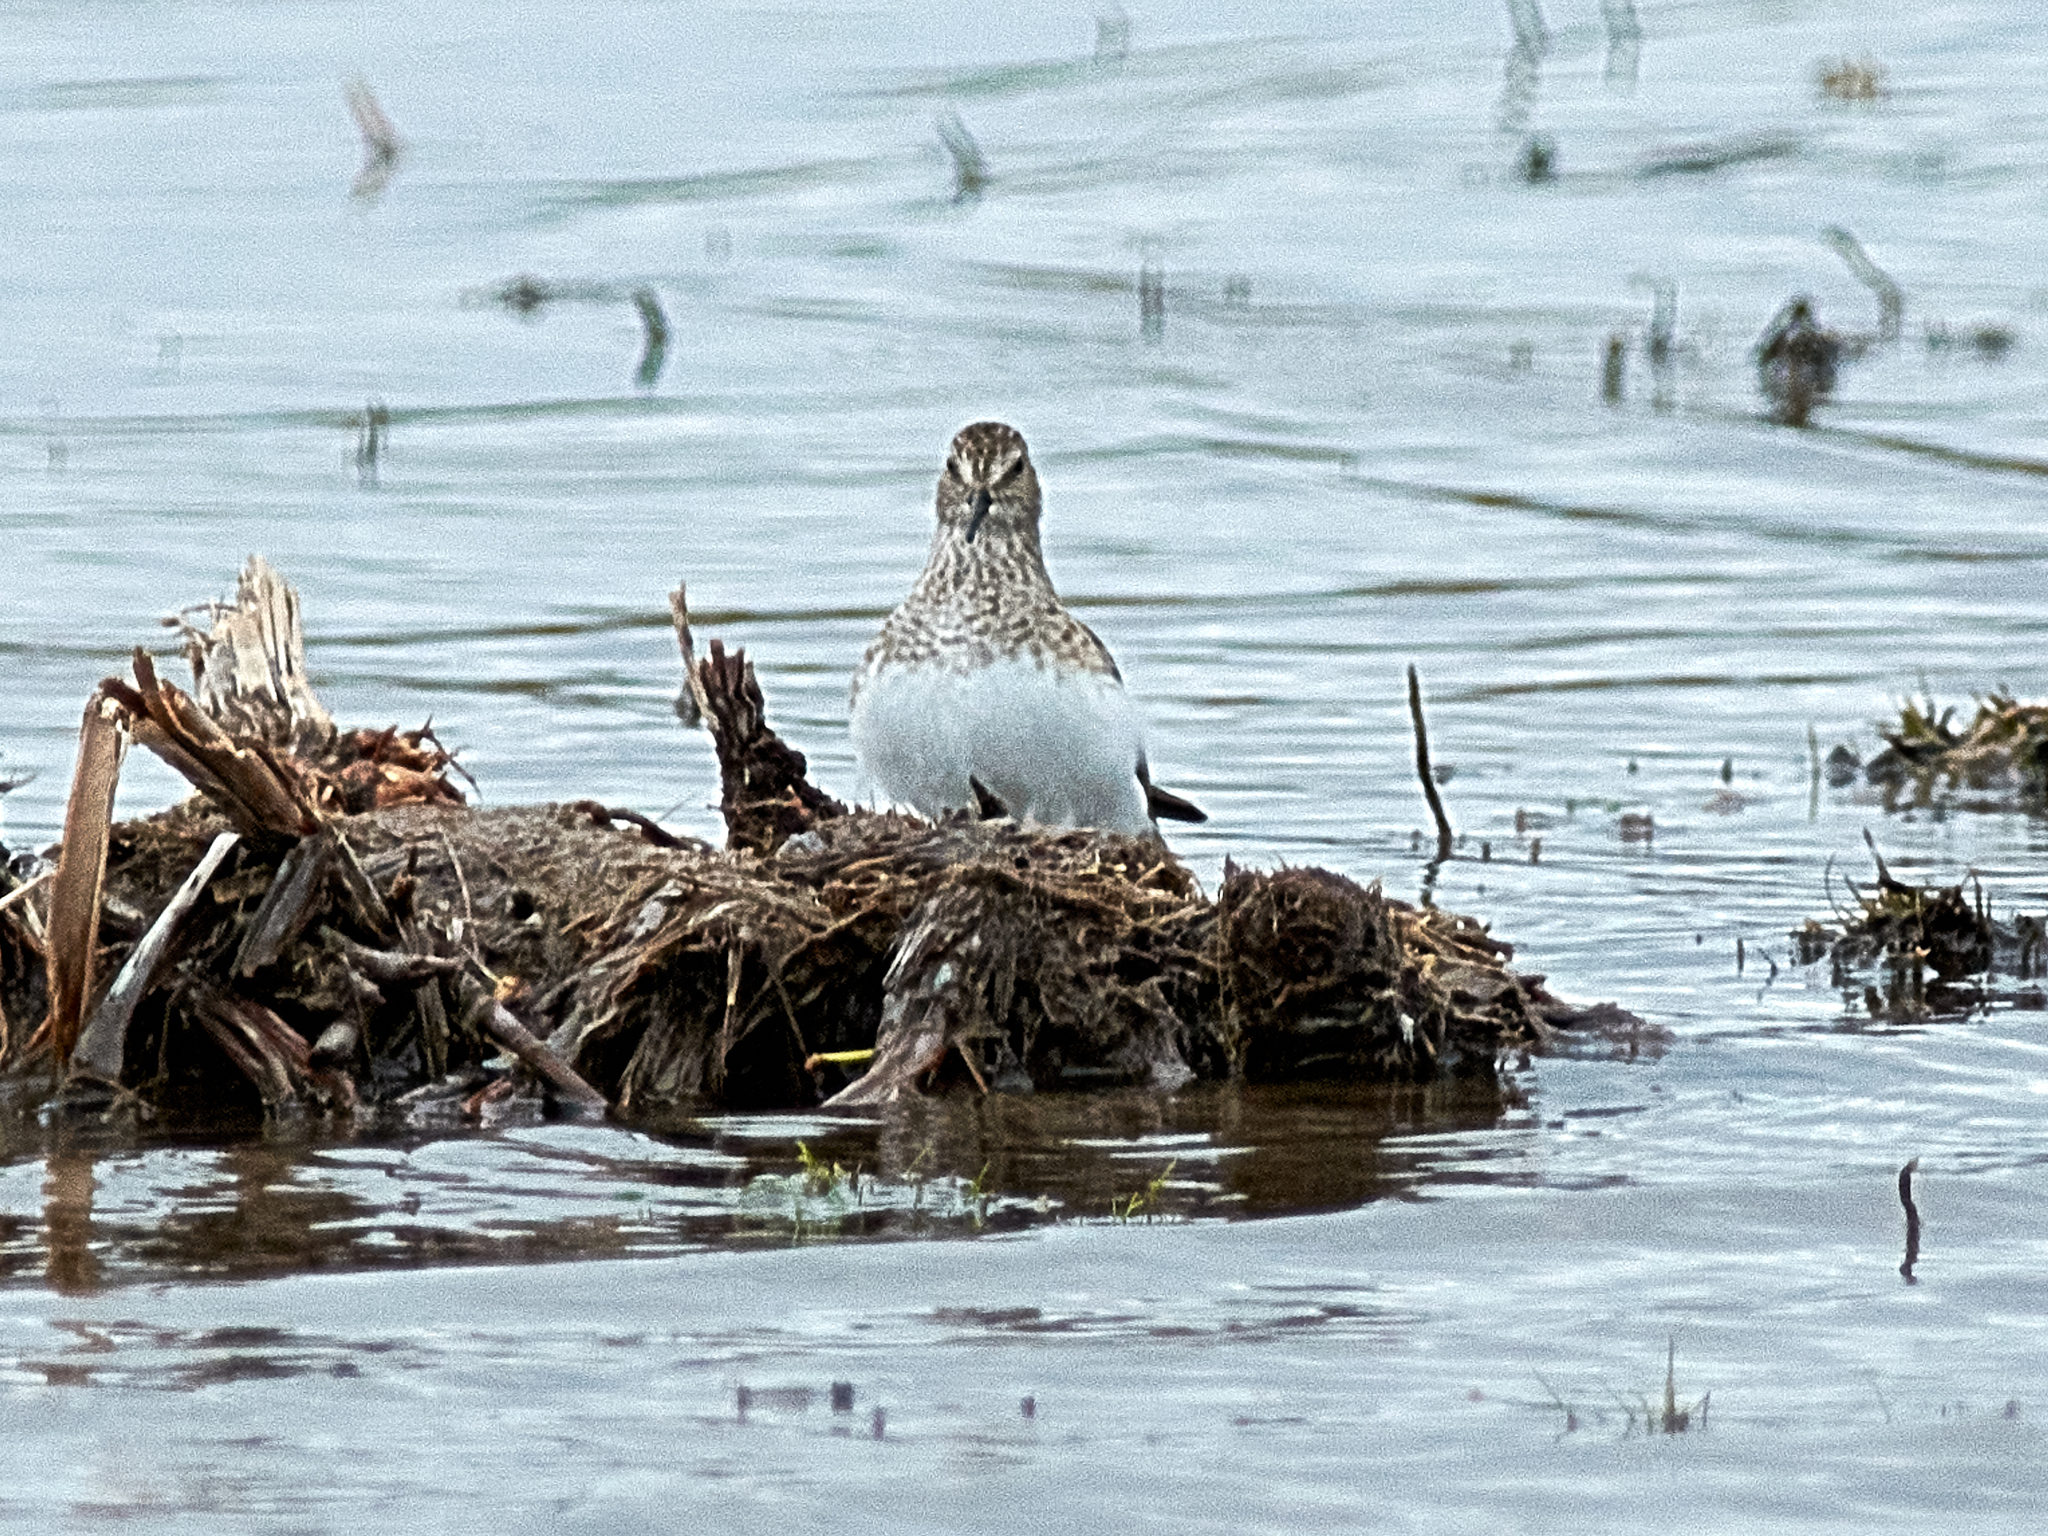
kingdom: Animalia
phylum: Chordata
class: Aves
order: Charadriiformes
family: Scolopacidae
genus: Calidris
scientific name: Calidris temminckii
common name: Temminck's stint
